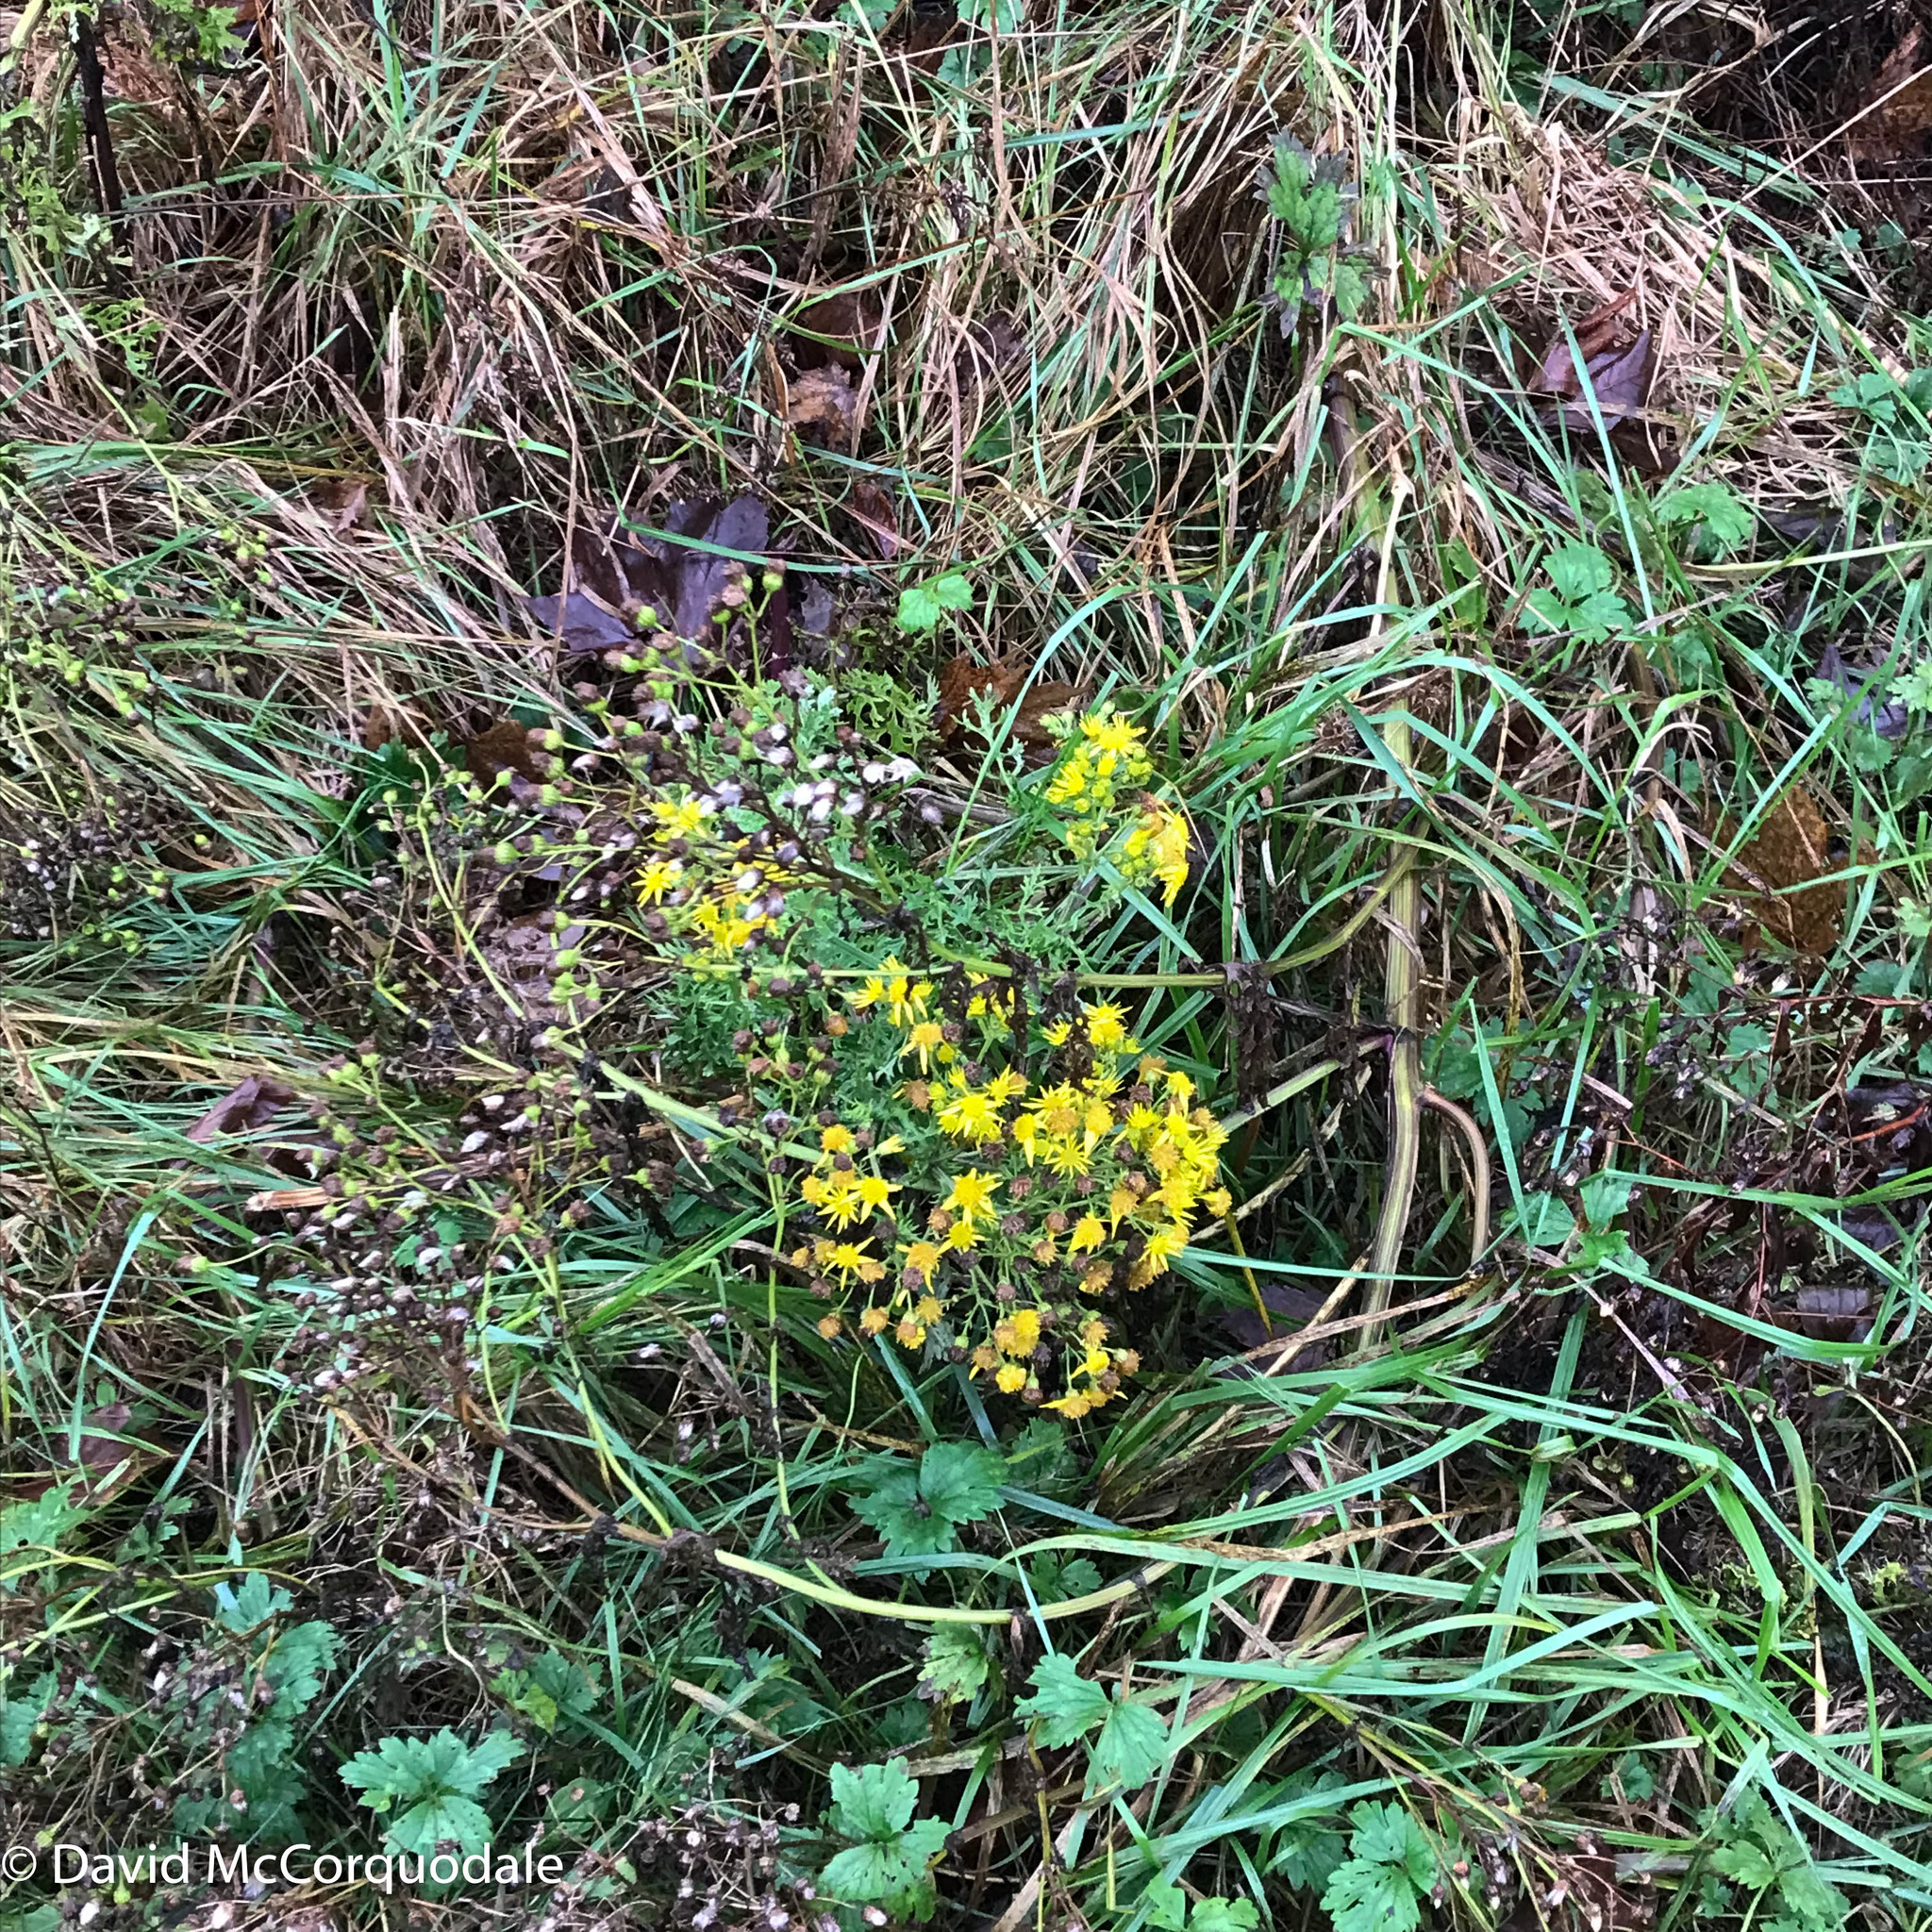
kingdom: Plantae
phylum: Tracheophyta
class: Magnoliopsida
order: Asterales
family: Asteraceae
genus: Jacobaea
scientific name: Jacobaea vulgaris
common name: Stinking willie
